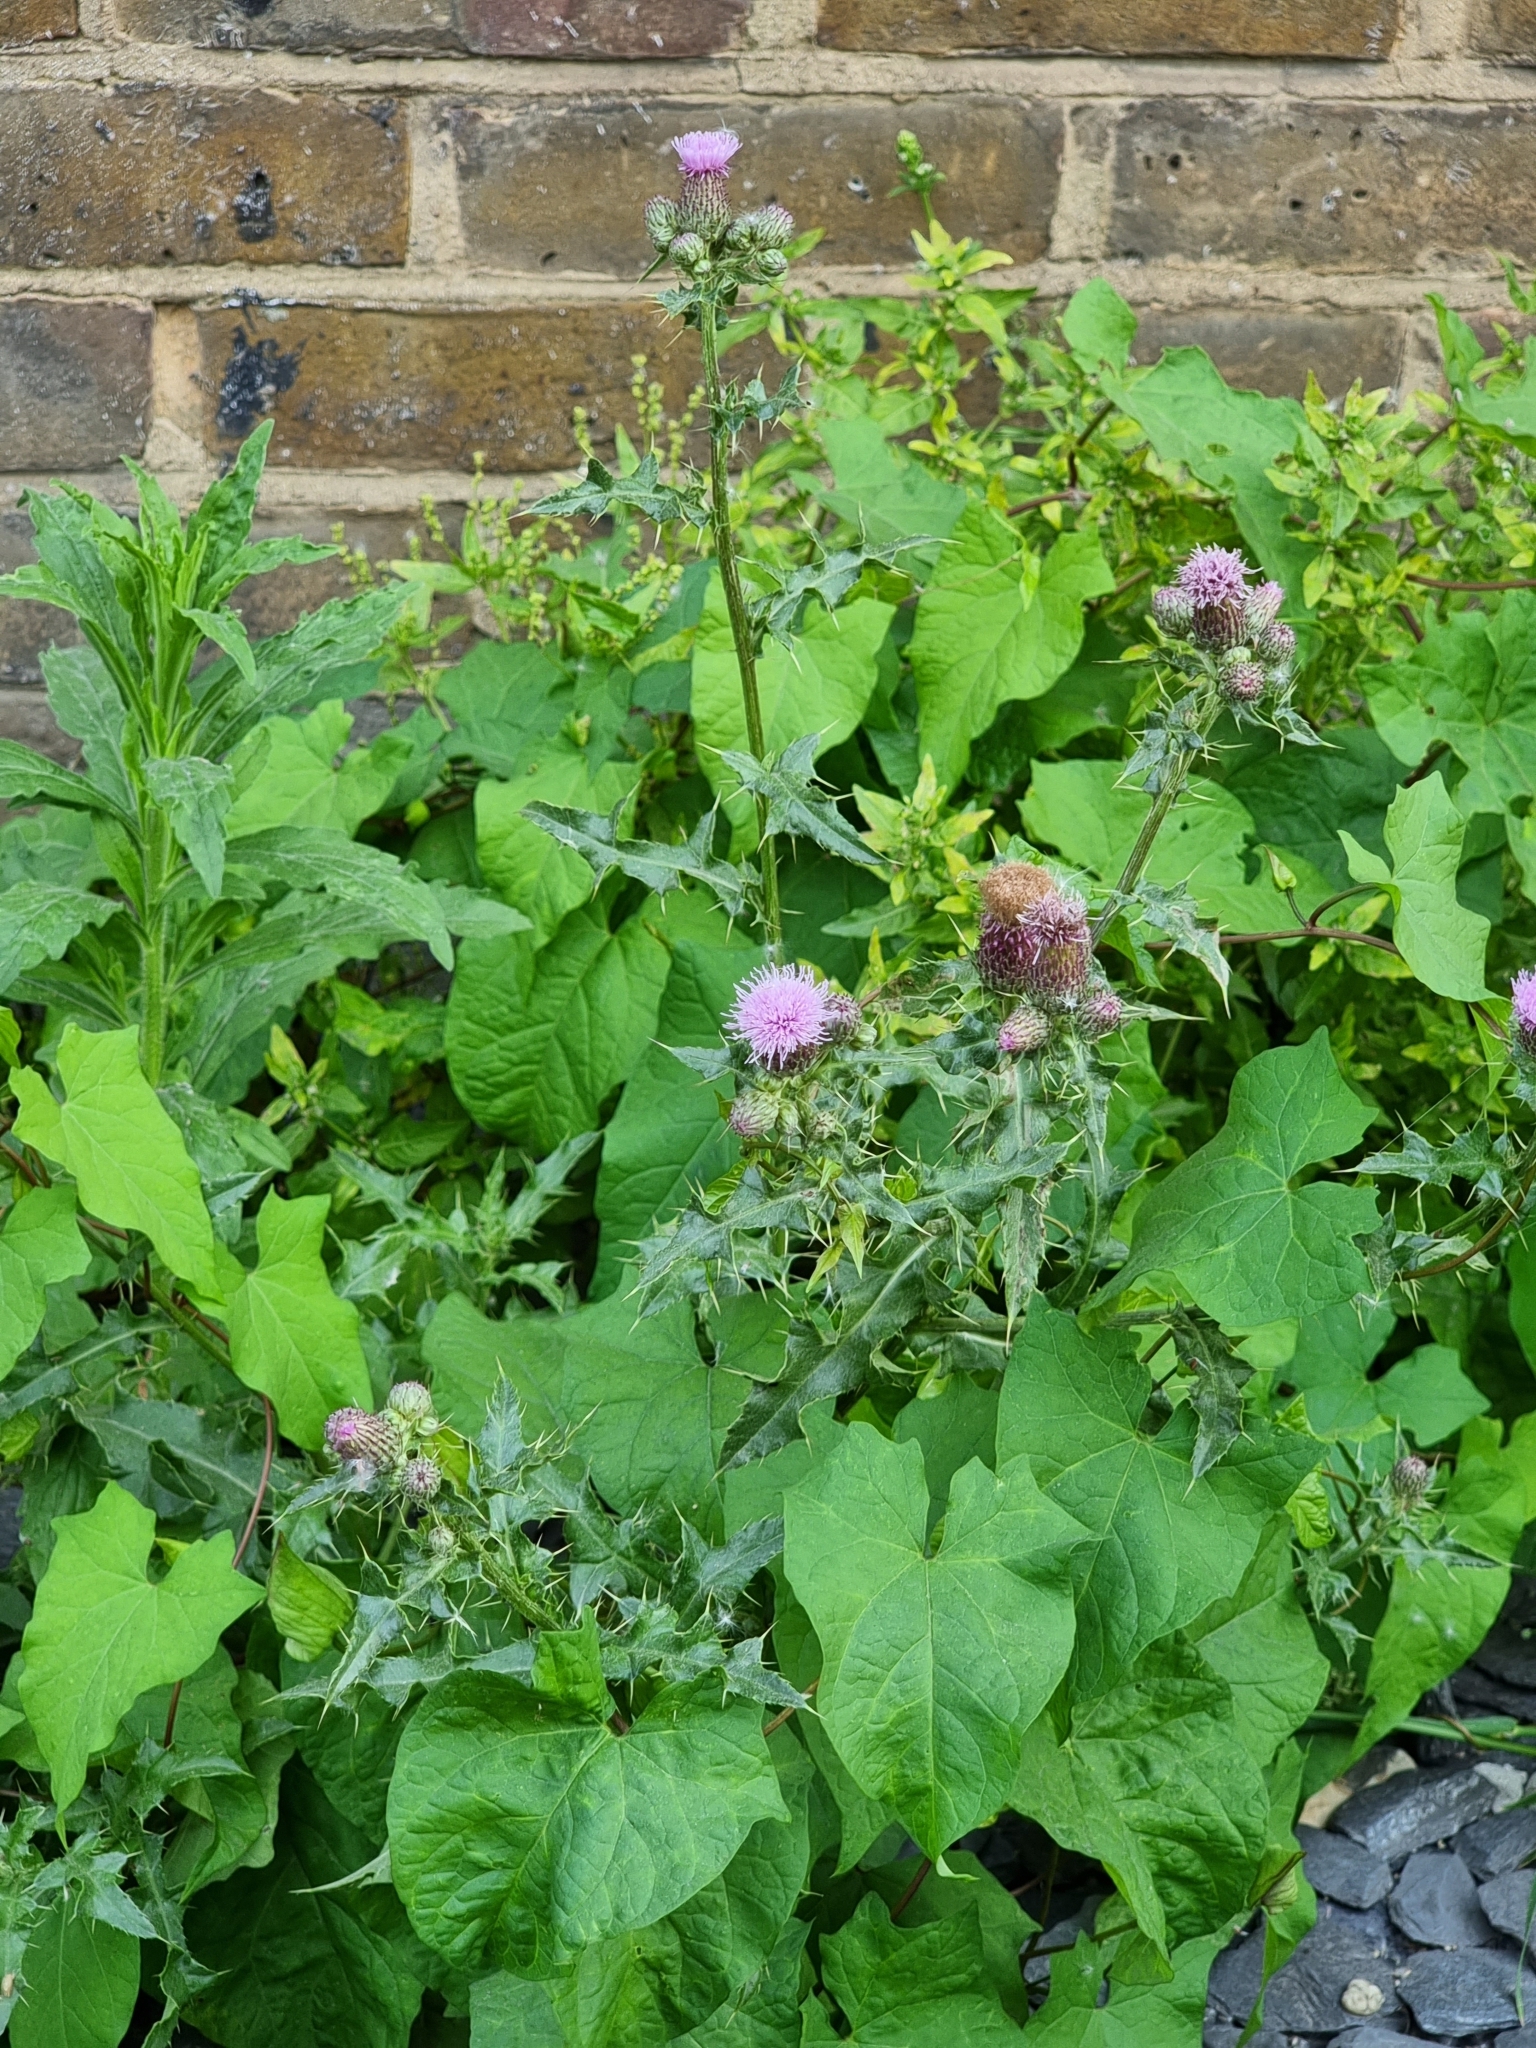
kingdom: Plantae
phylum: Tracheophyta
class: Magnoliopsida
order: Asterales
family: Asteraceae
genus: Cirsium
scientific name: Cirsium arvense
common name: Creeping thistle
